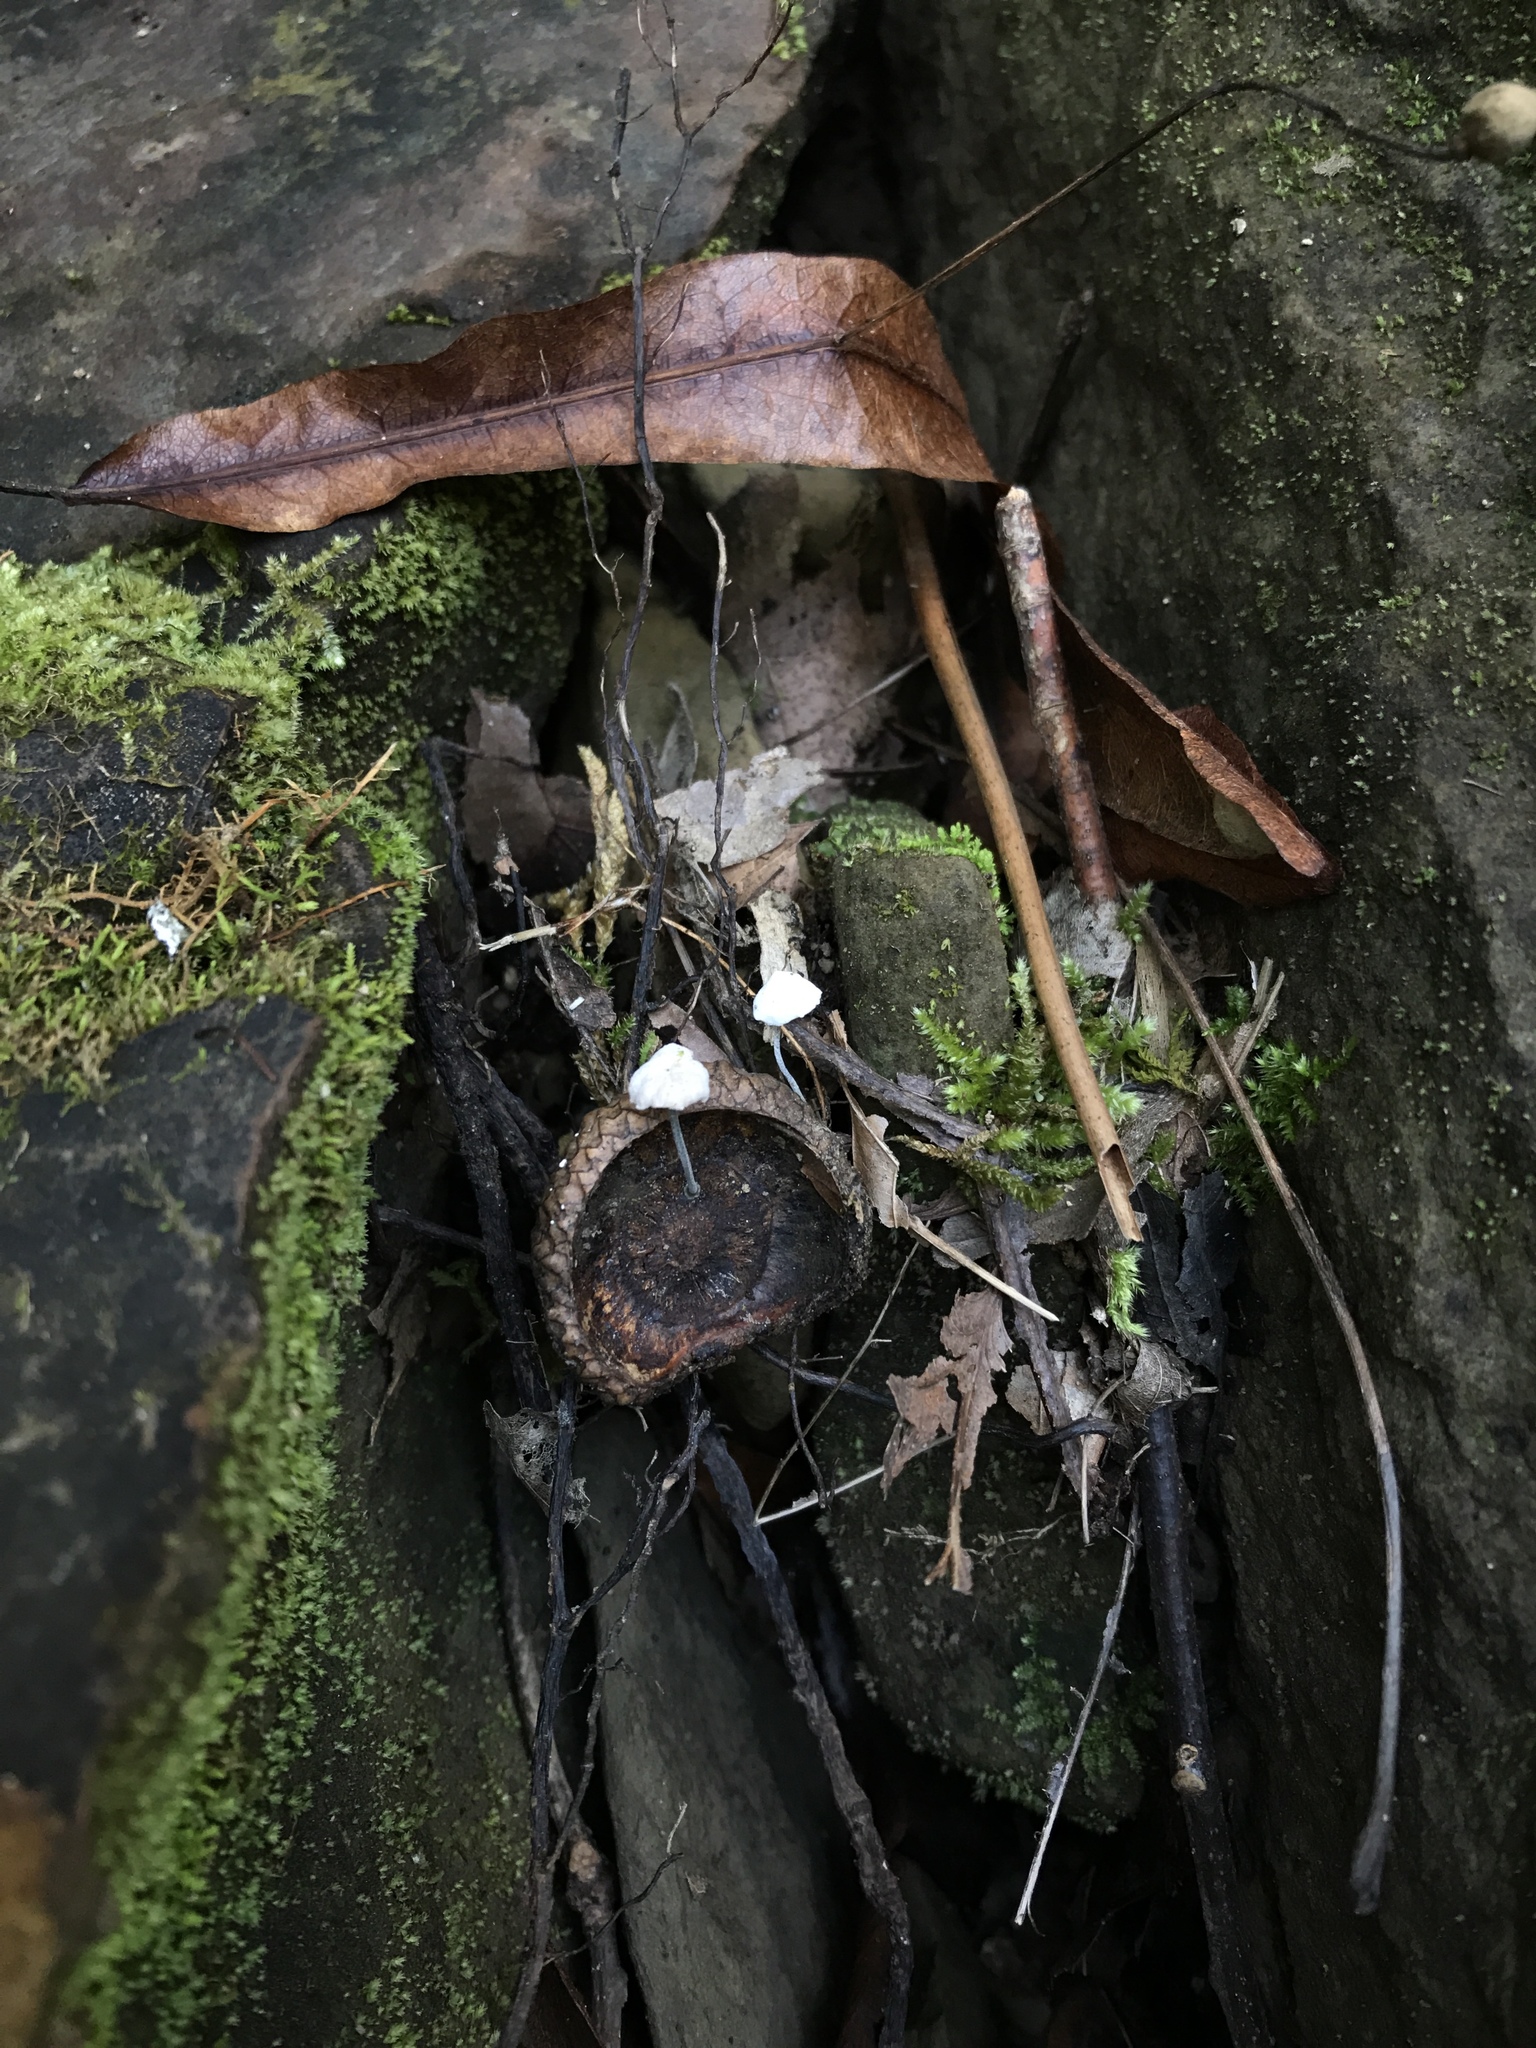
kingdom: Fungi
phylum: Basidiomycota
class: Agaricomycetes
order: Agaricales
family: Marasmiaceae
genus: Tetrapyrgos
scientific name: Tetrapyrgos nigripes
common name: Black-stalked marasmius
